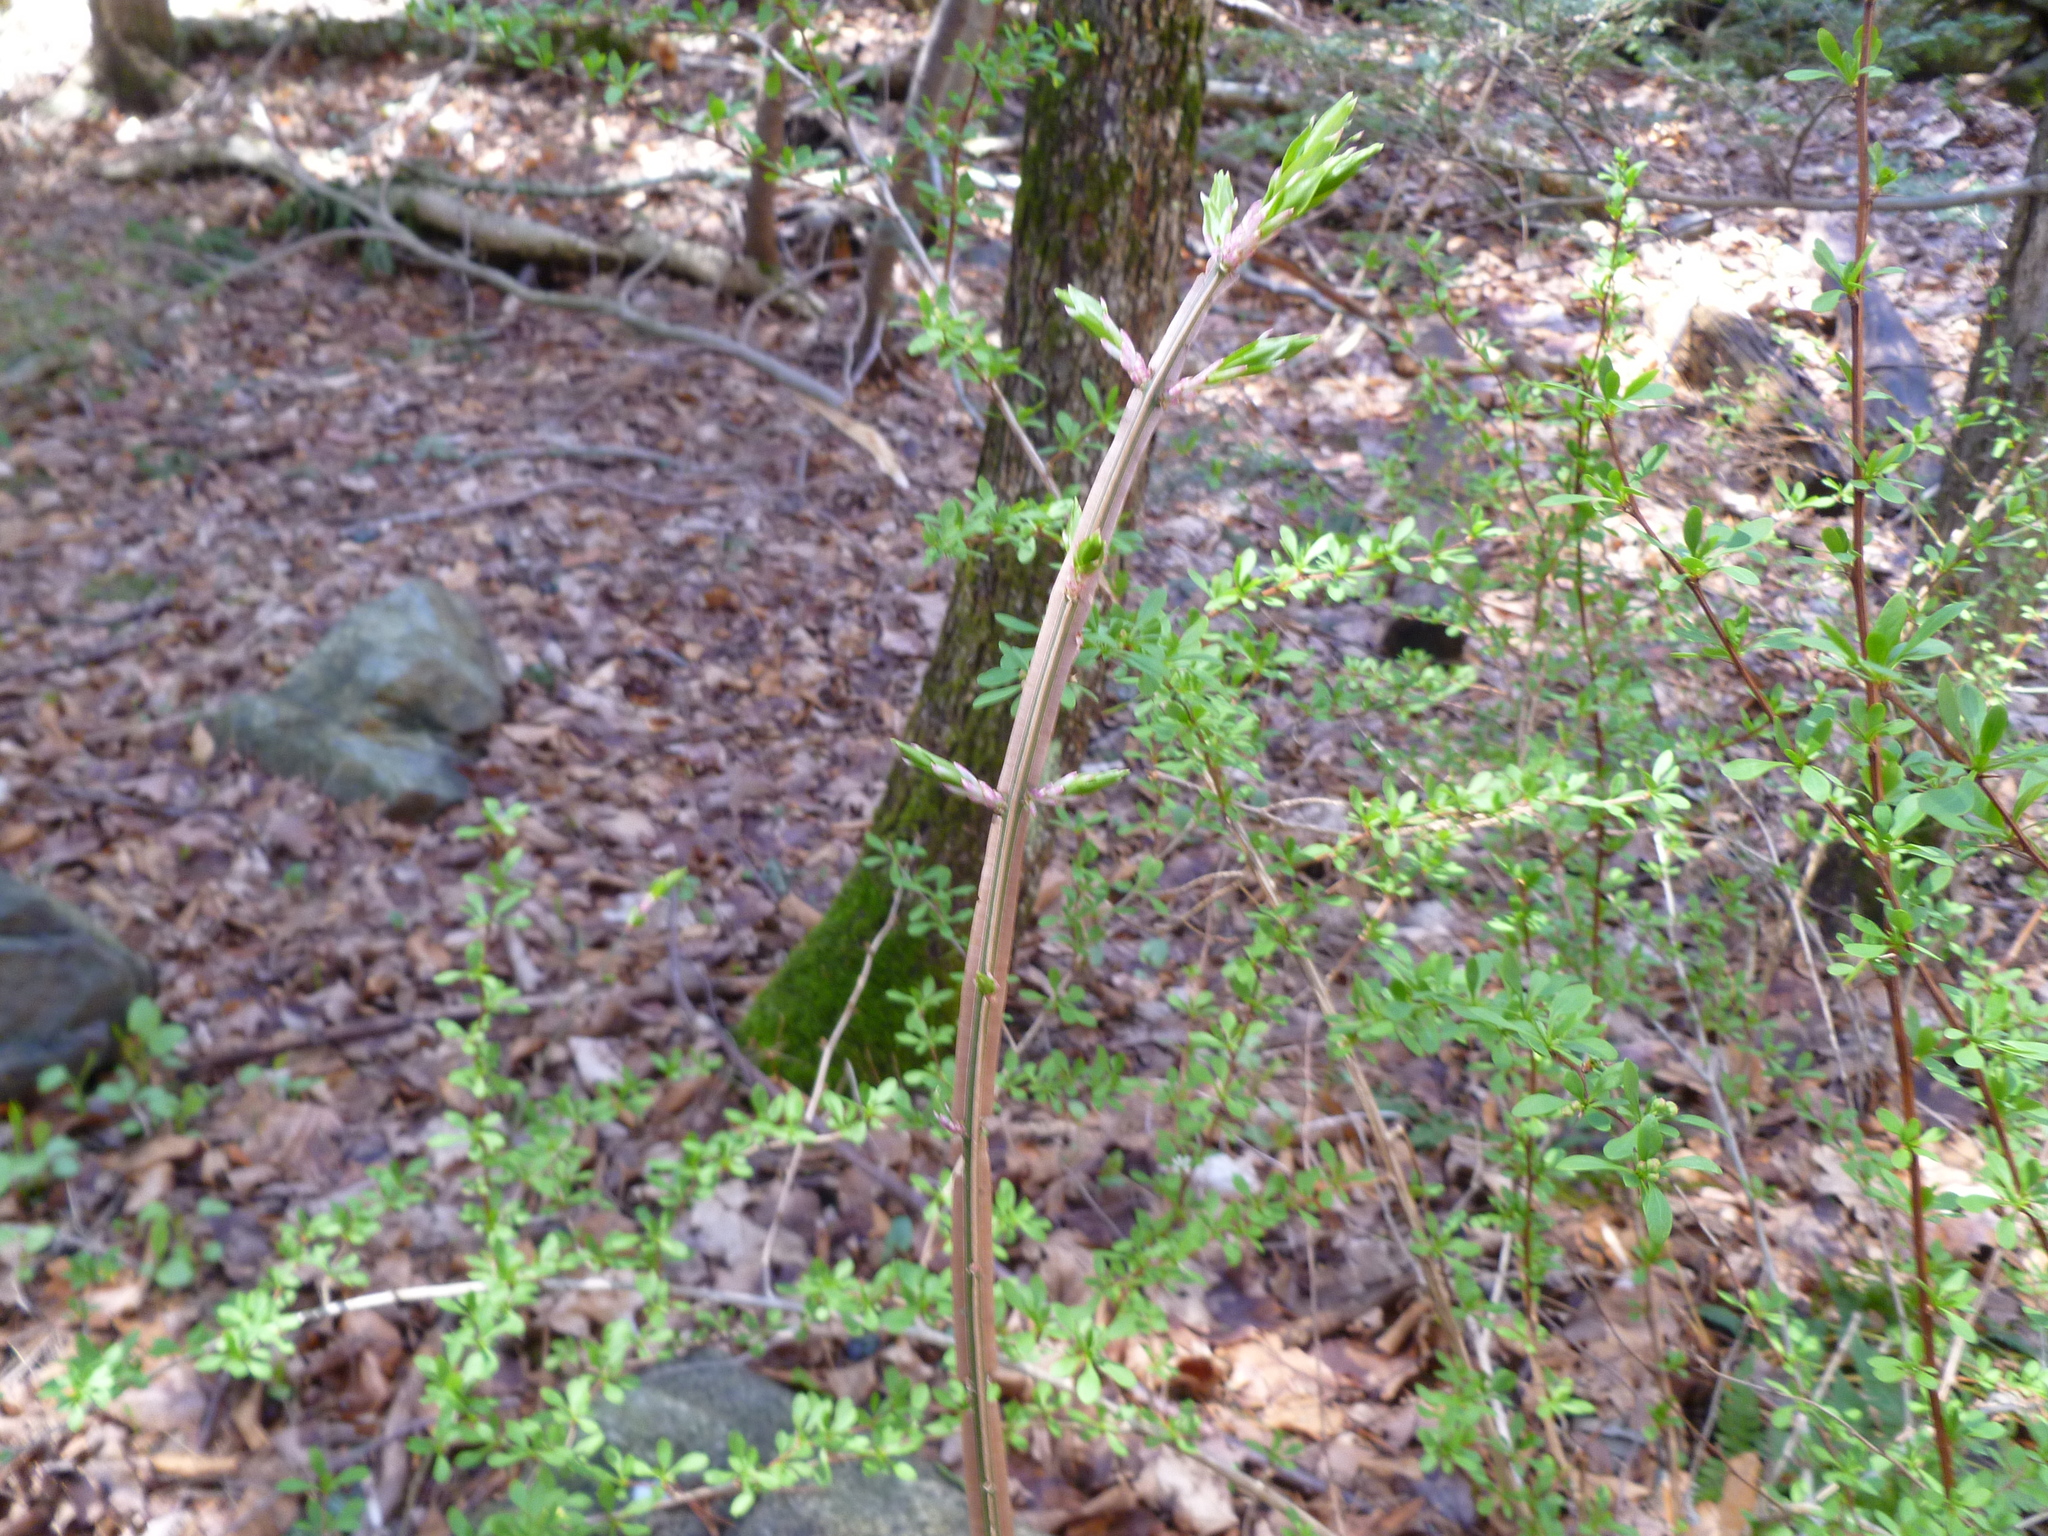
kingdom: Plantae
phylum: Tracheophyta
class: Magnoliopsida
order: Celastrales
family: Celastraceae
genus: Euonymus
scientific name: Euonymus alatus
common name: Winged euonymus
